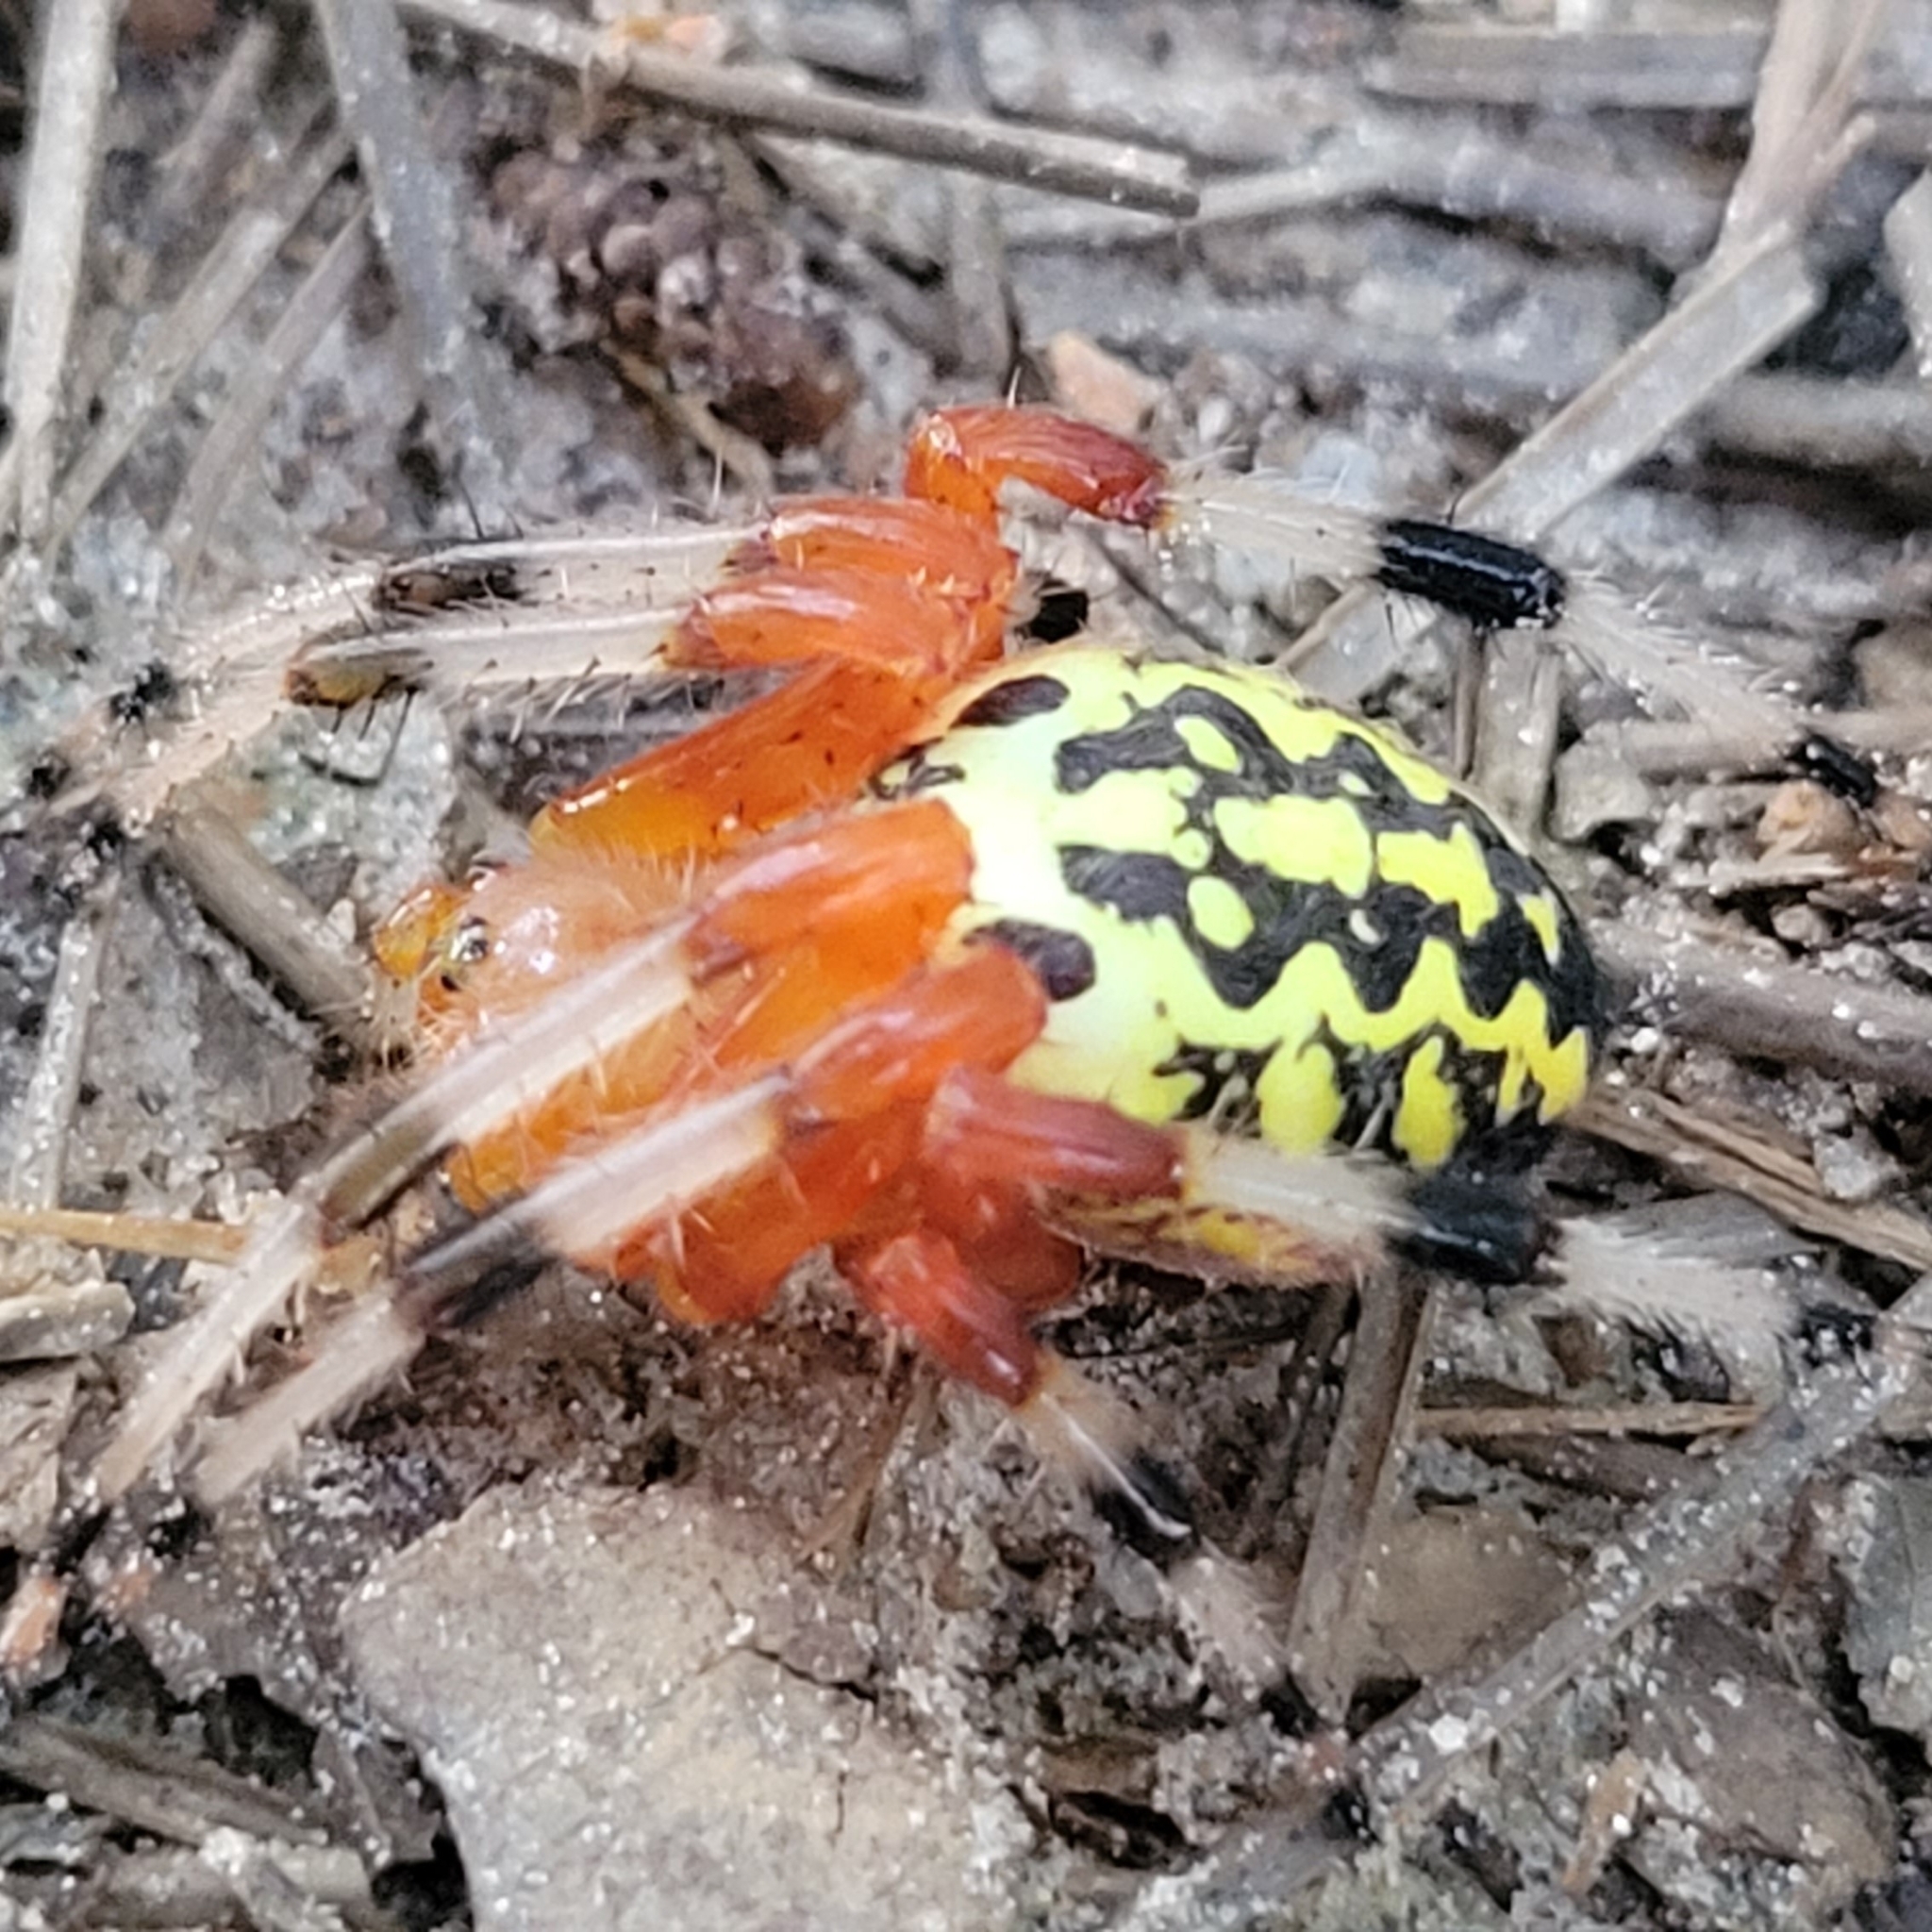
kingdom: Animalia
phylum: Arthropoda
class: Arachnida
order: Araneae
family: Araneidae
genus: Araneus
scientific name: Araneus marmoreus
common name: Marbled orbweaver
